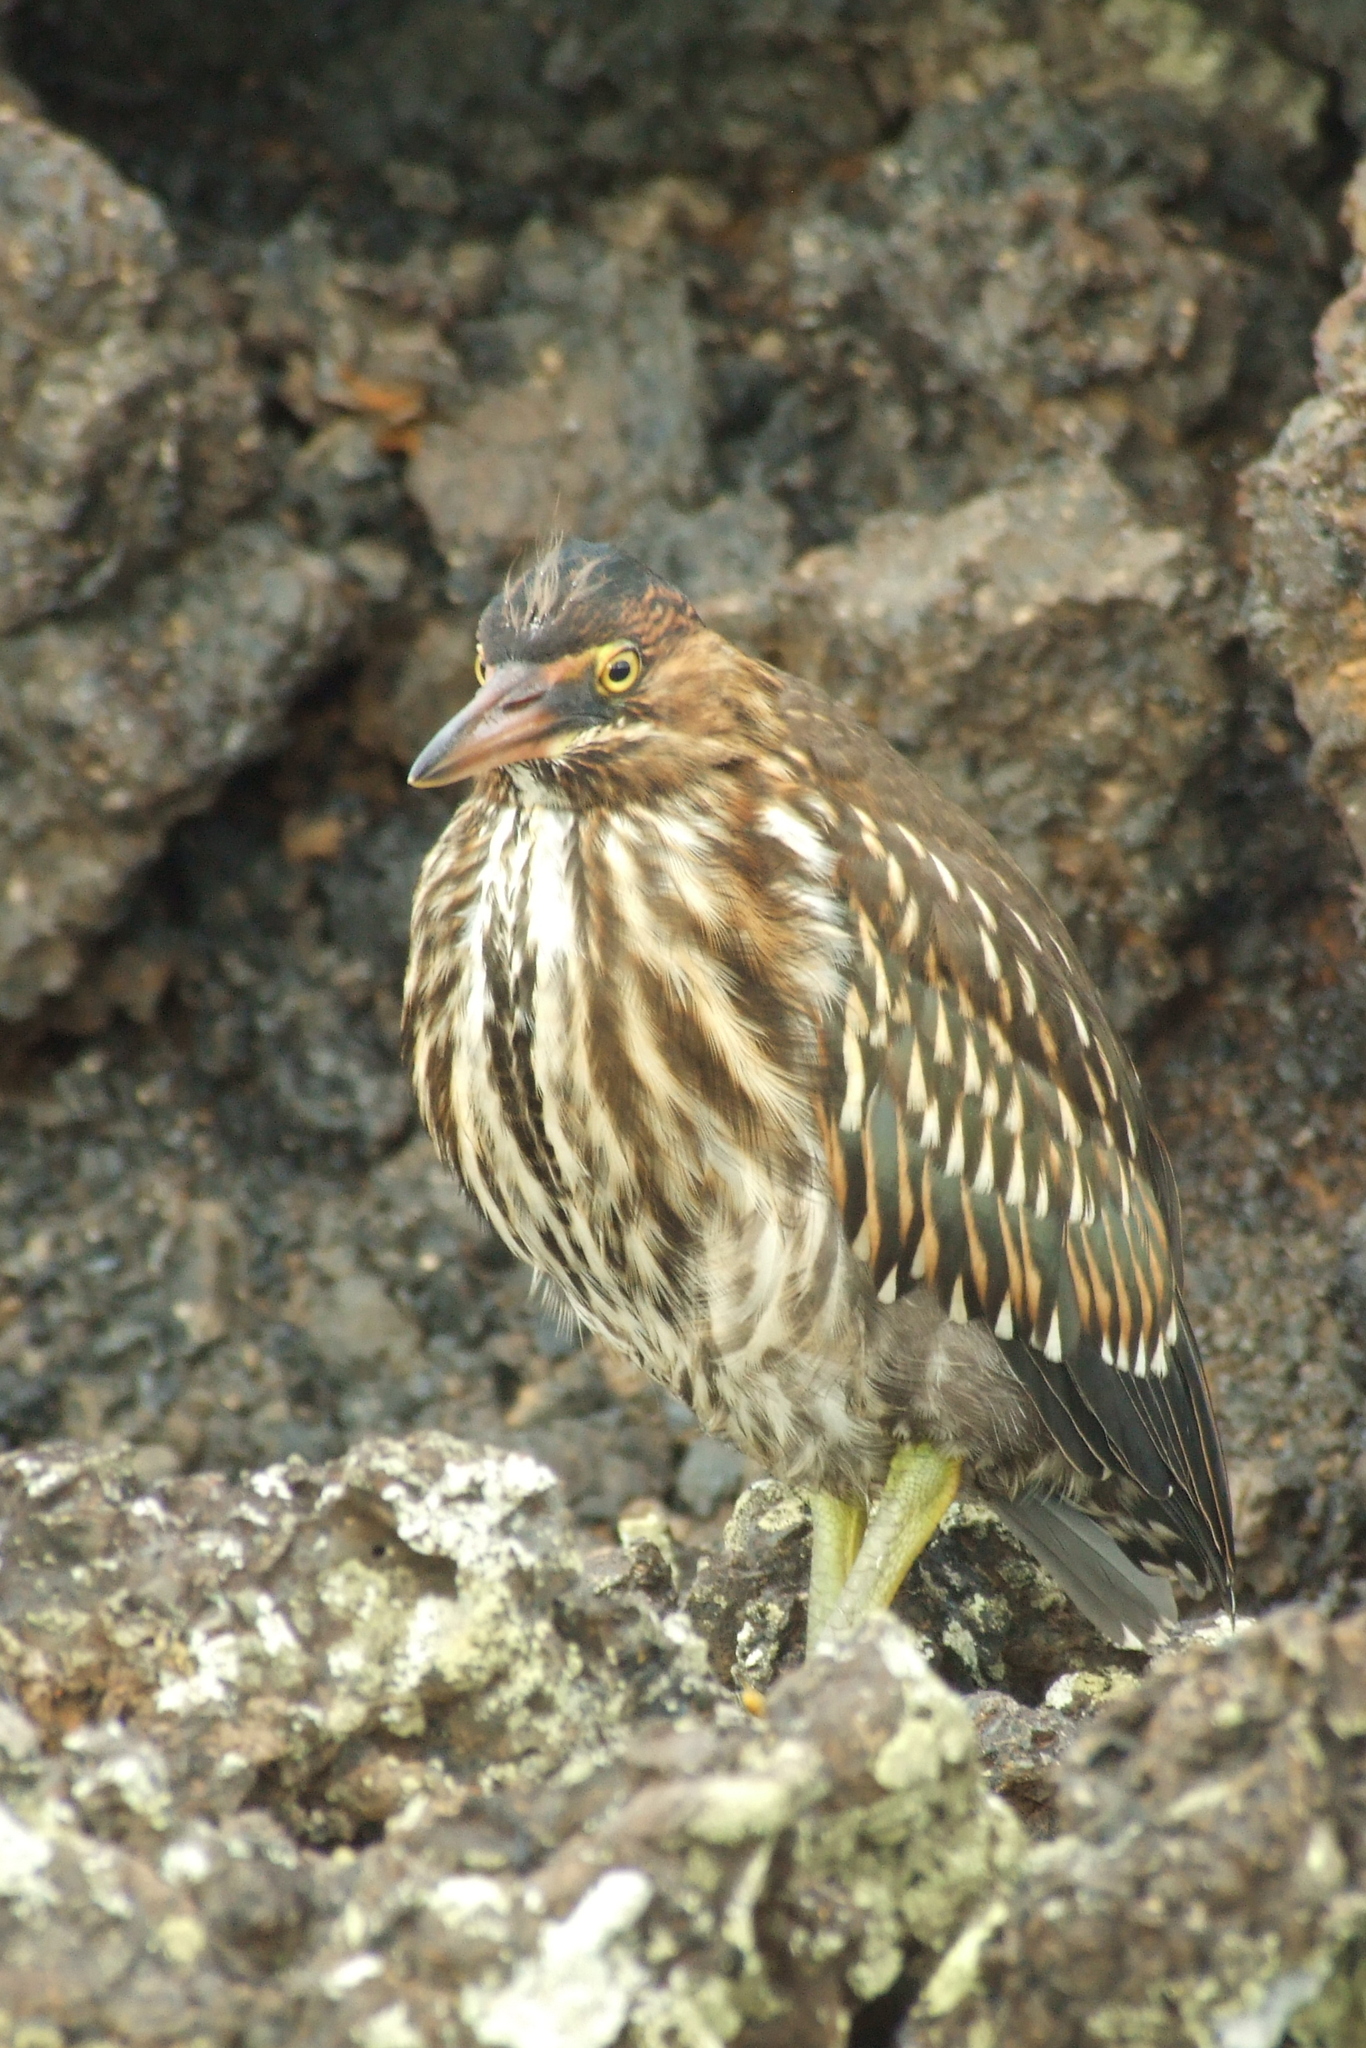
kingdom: Animalia
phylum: Chordata
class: Aves
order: Pelecaniformes
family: Ardeidae
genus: Butorides
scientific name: Butorides striata
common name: Striated heron
